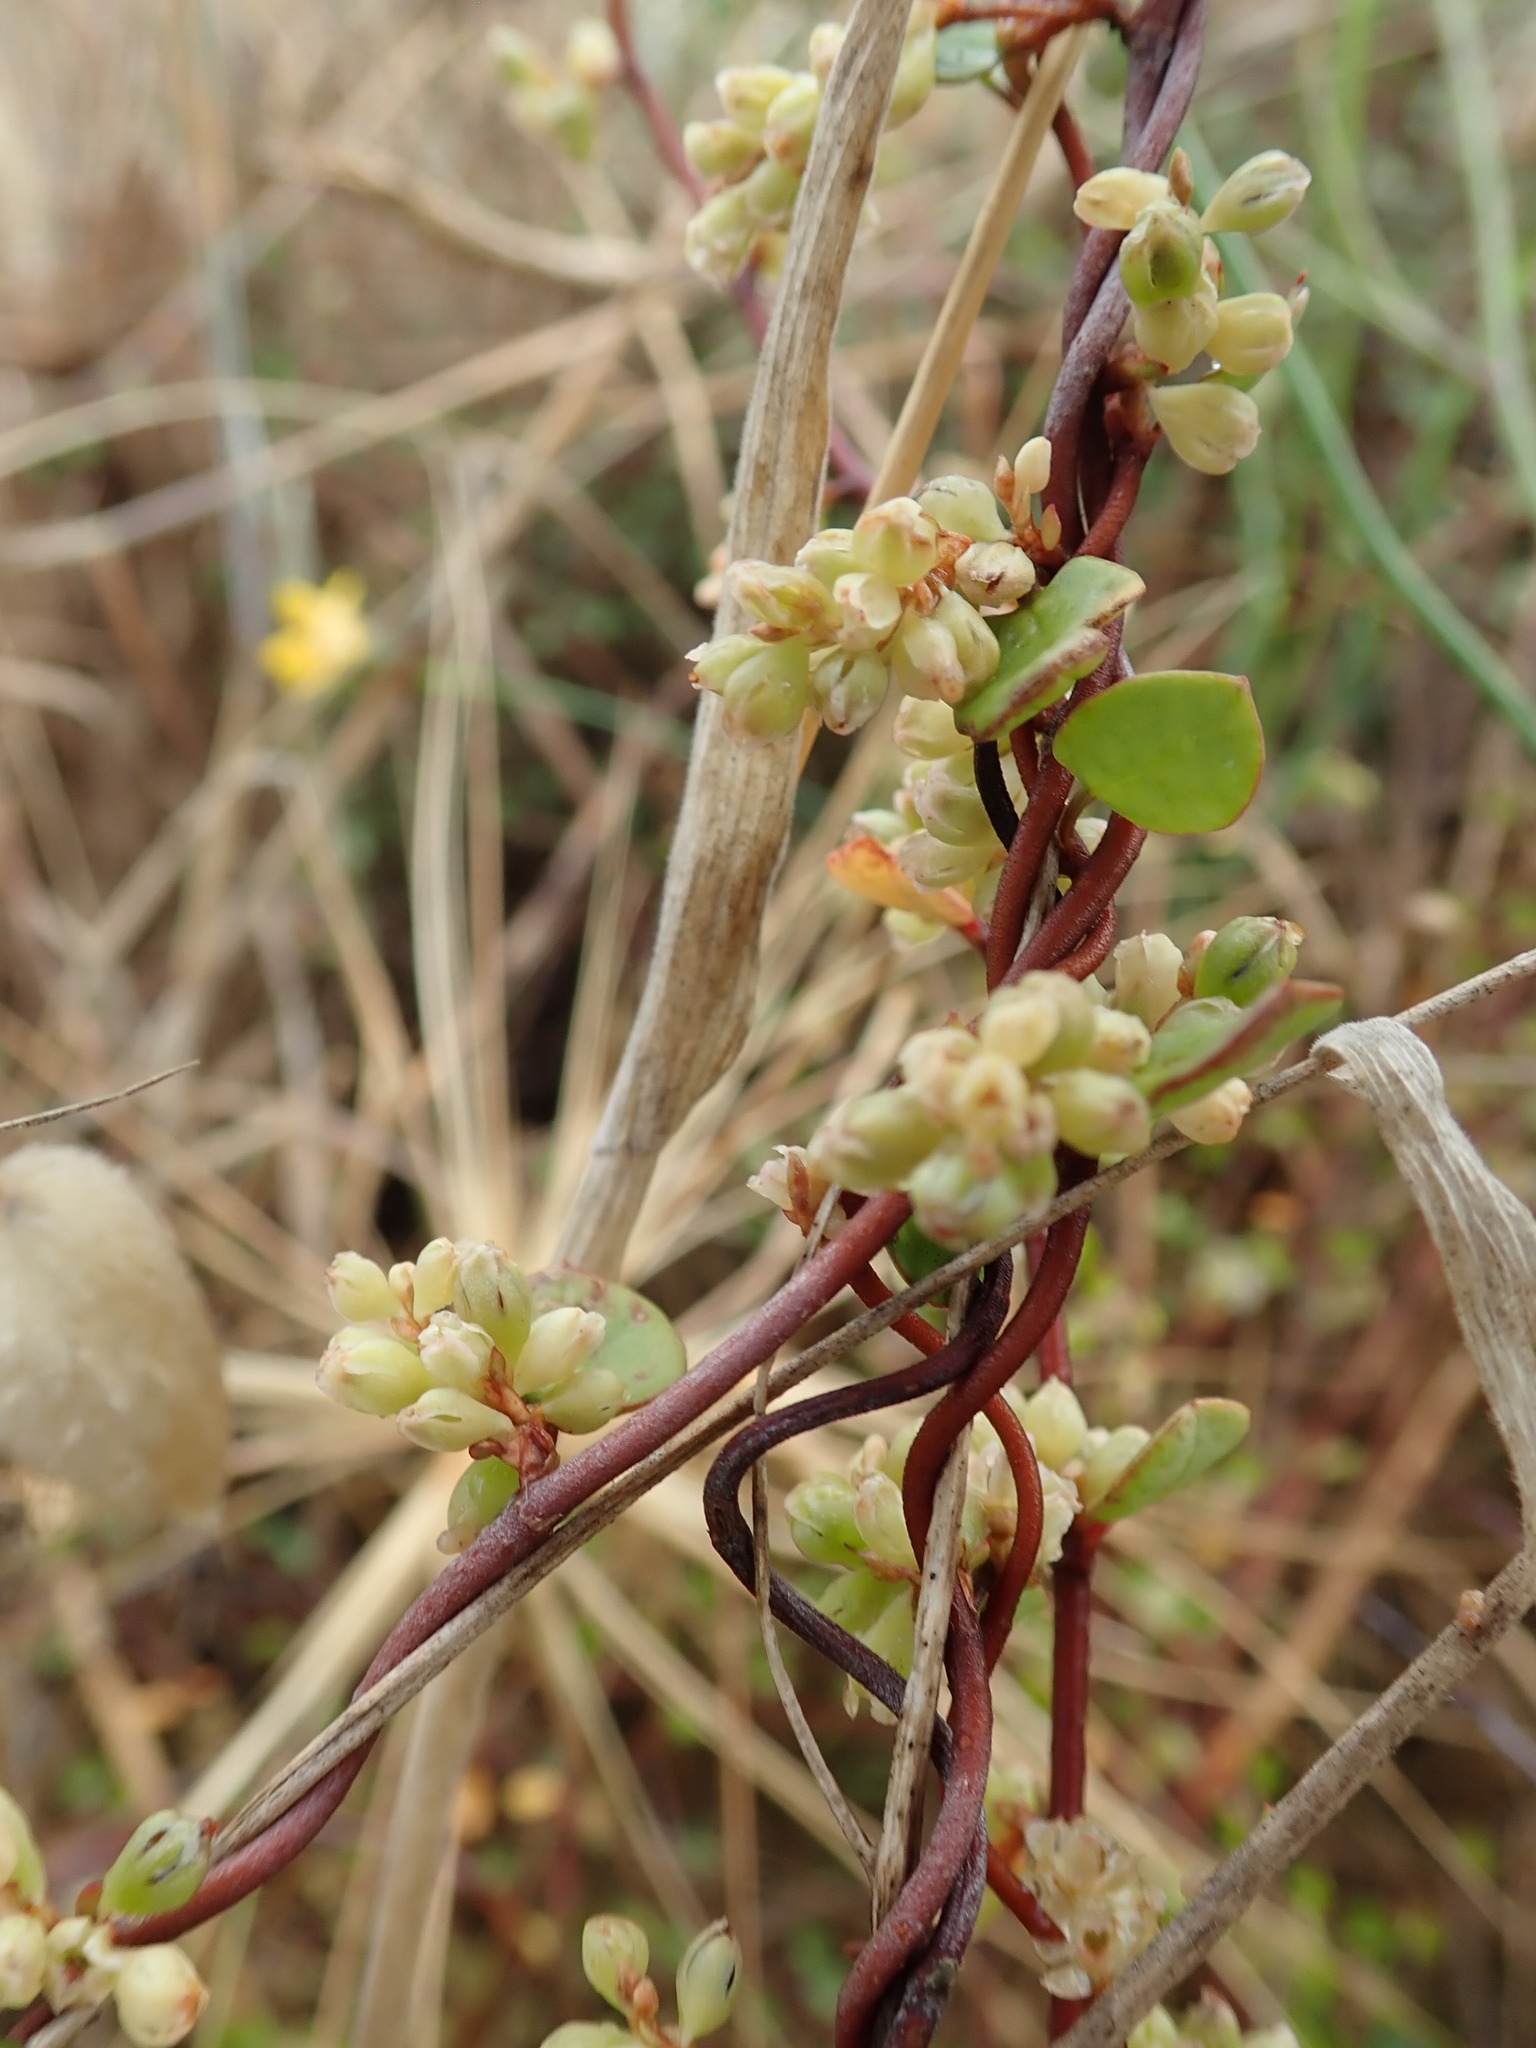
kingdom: Plantae
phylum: Tracheophyta
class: Magnoliopsida
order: Caryophyllales
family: Polygonaceae
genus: Muehlenbeckia
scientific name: Muehlenbeckia complexa
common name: Wireplant
